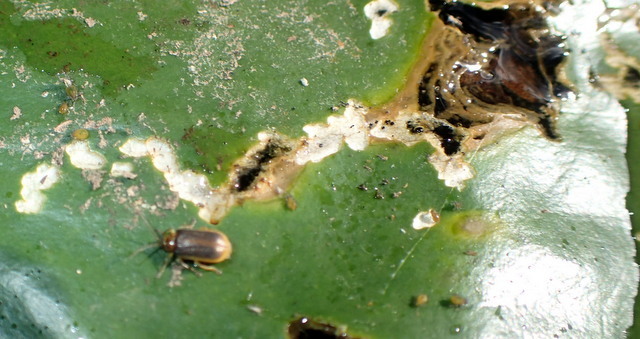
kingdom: Animalia
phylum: Arthropoda
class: Insecta
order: Coleoptera
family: Chrysomelidae
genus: Galerucella
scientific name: Galerucella nymphaeae
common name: Leaf beetle
